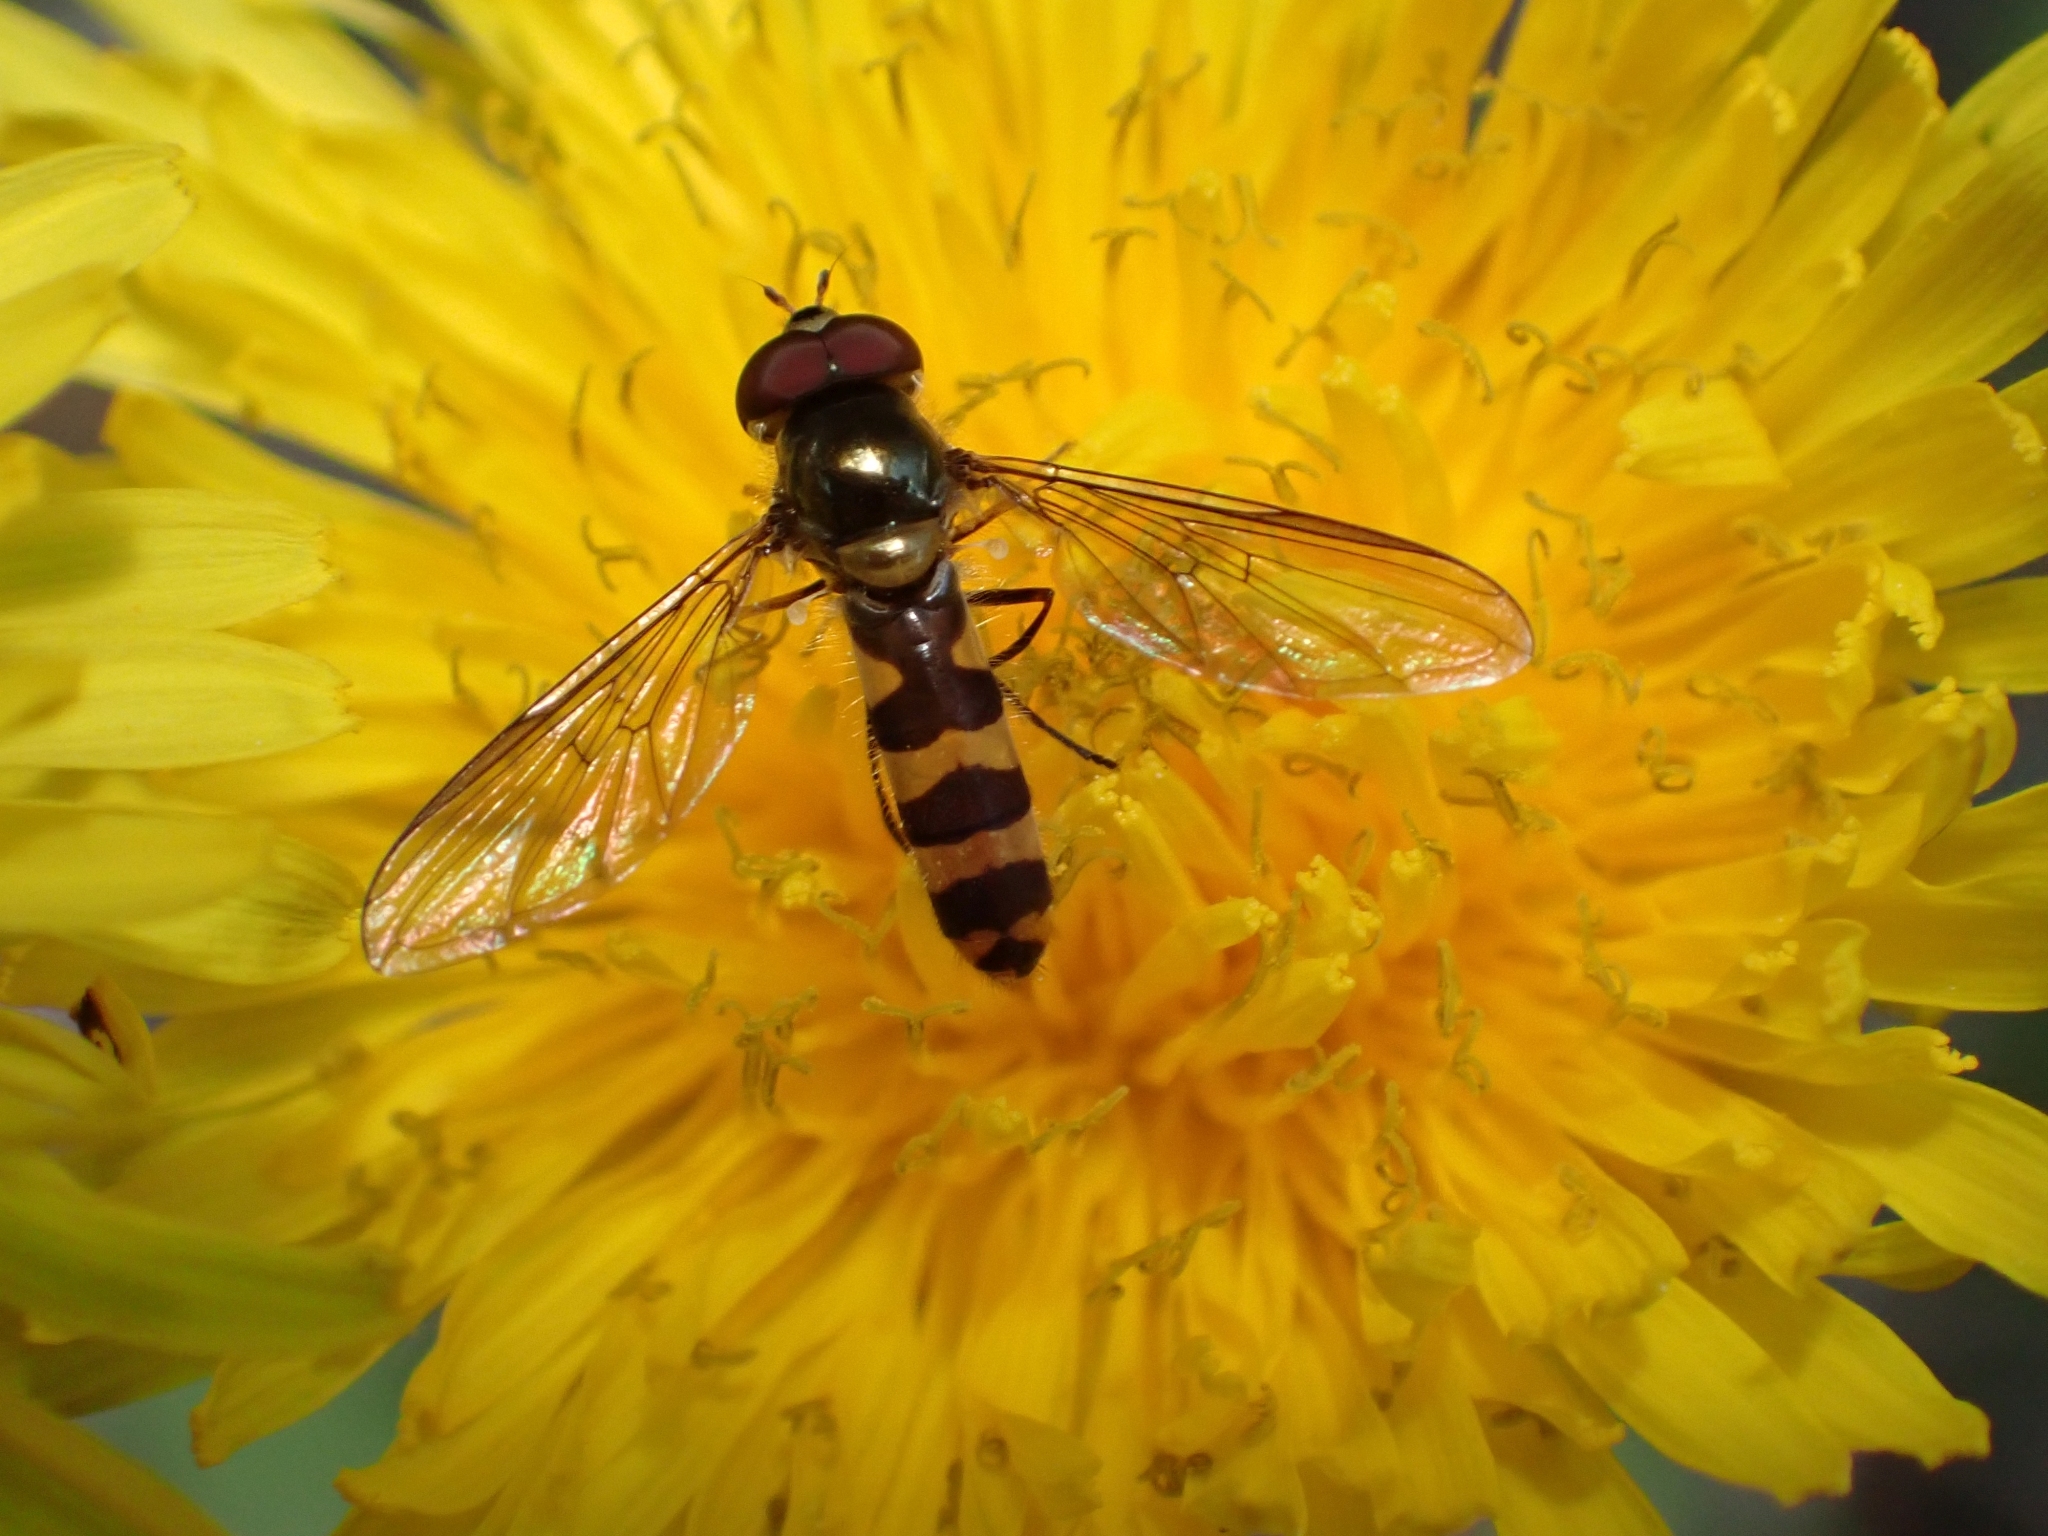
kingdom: Animalia
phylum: Arthropoda
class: Insecta
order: Diptera
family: Syrphidae
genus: Meliscaeva
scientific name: Meliscaeva cinctella
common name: American thintail fly
